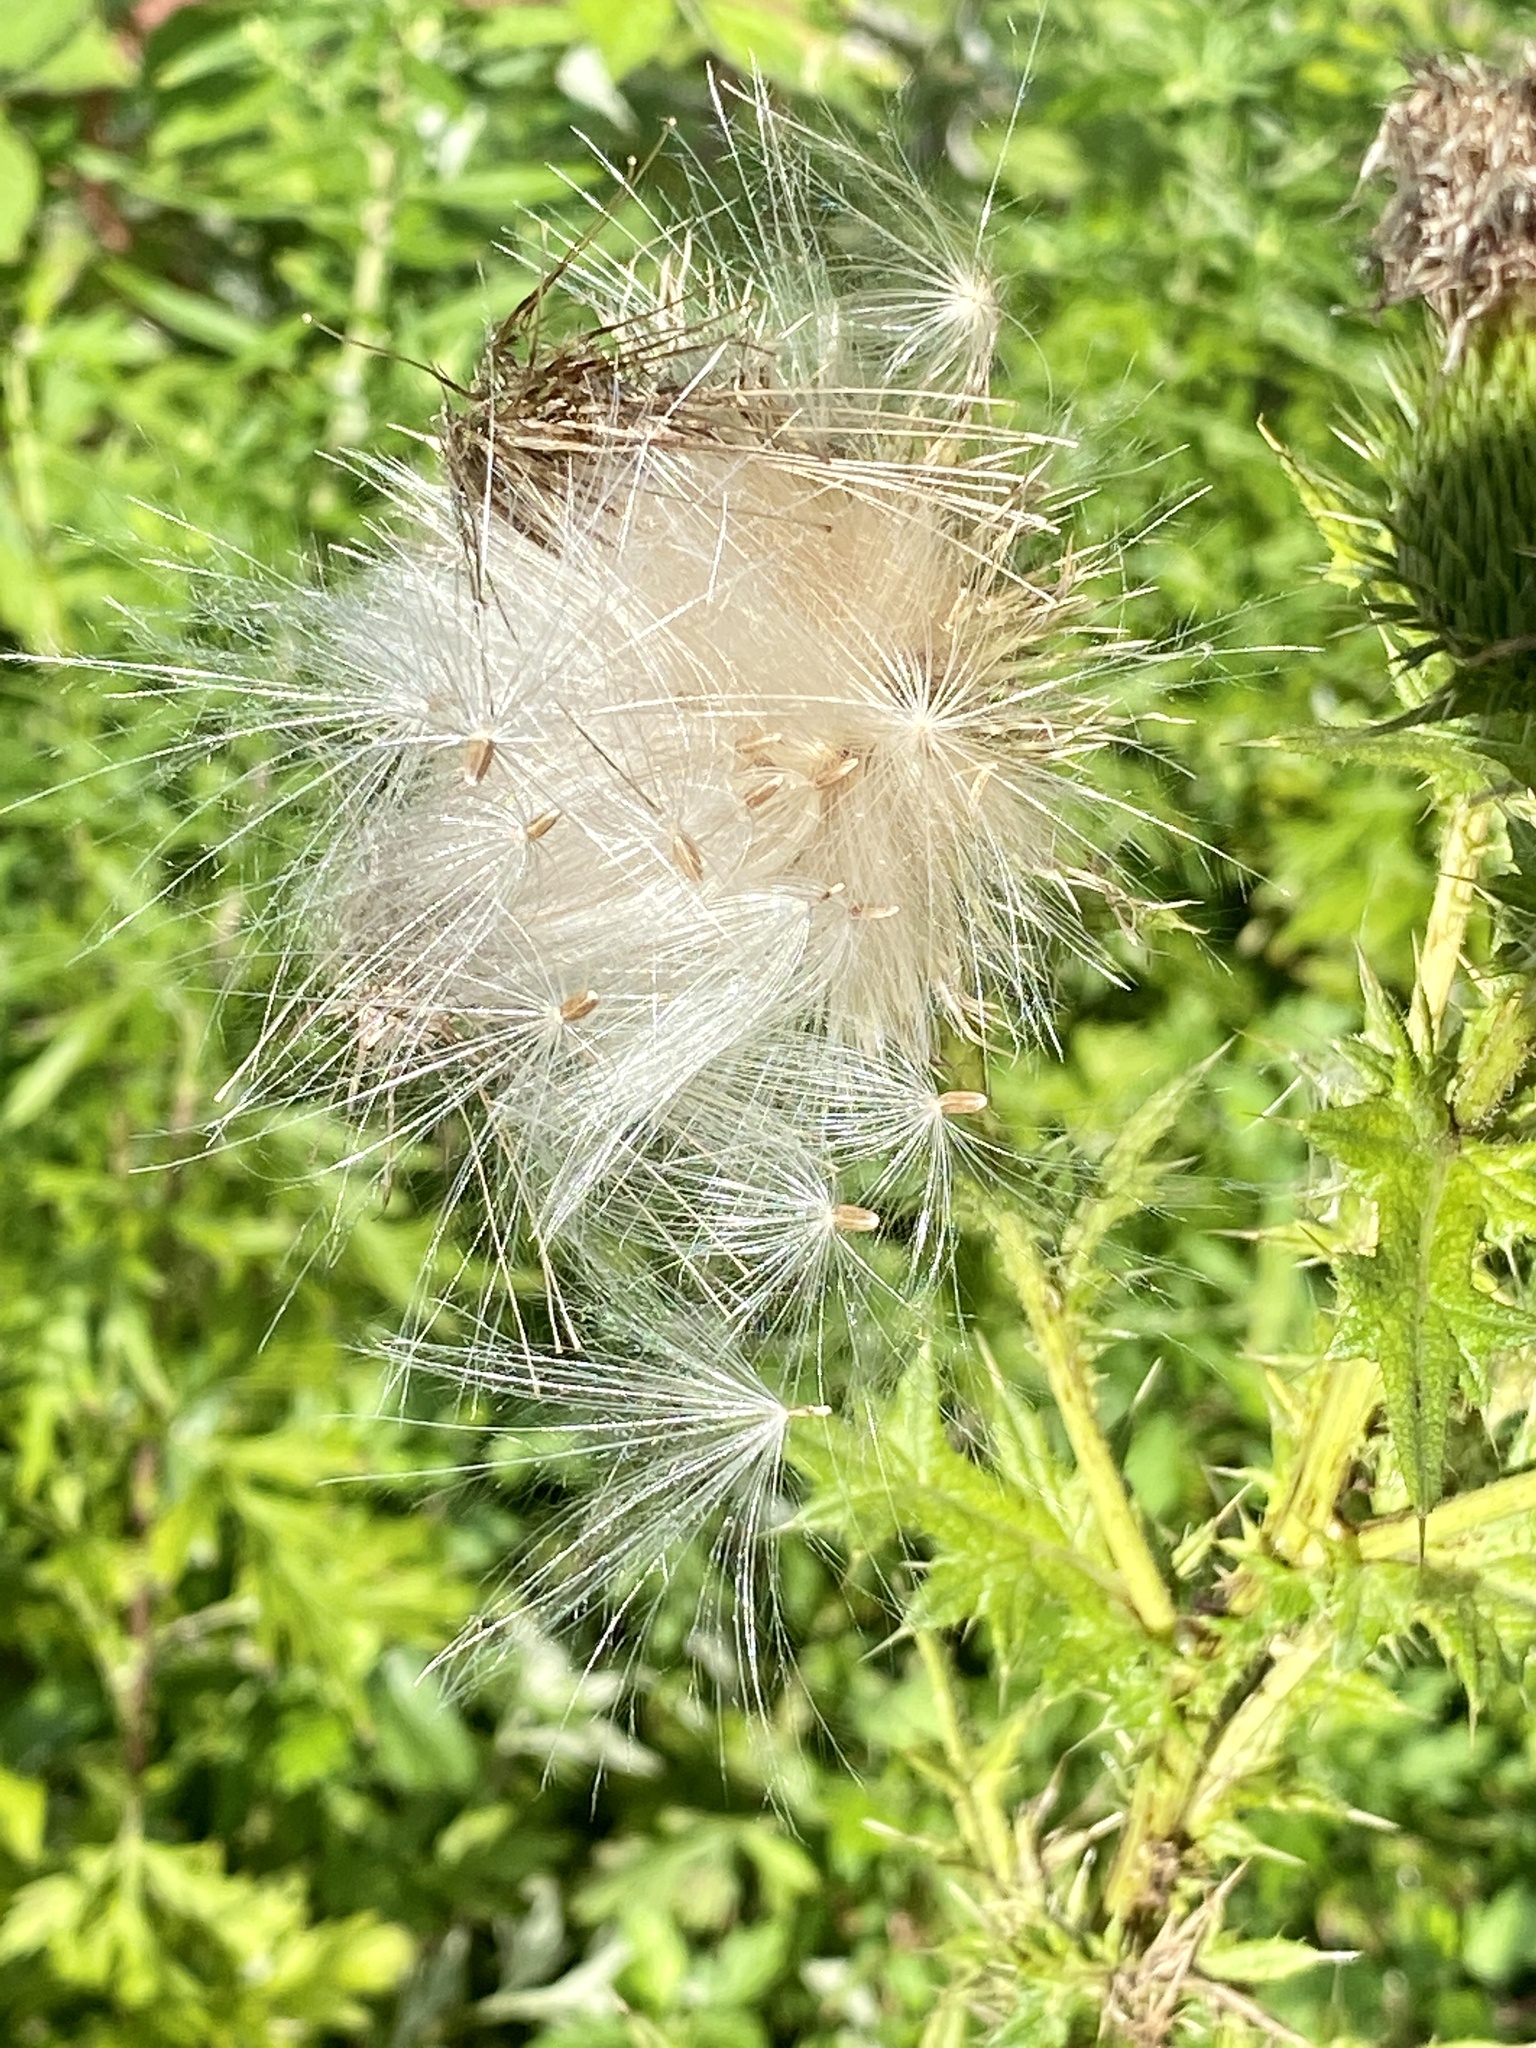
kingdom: Plantae
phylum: Tracheophyta
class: Magnoliopsida
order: Asterales
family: Asteraceae
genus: Cirsium
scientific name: Cirsium vulgare
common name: Bull thistle
